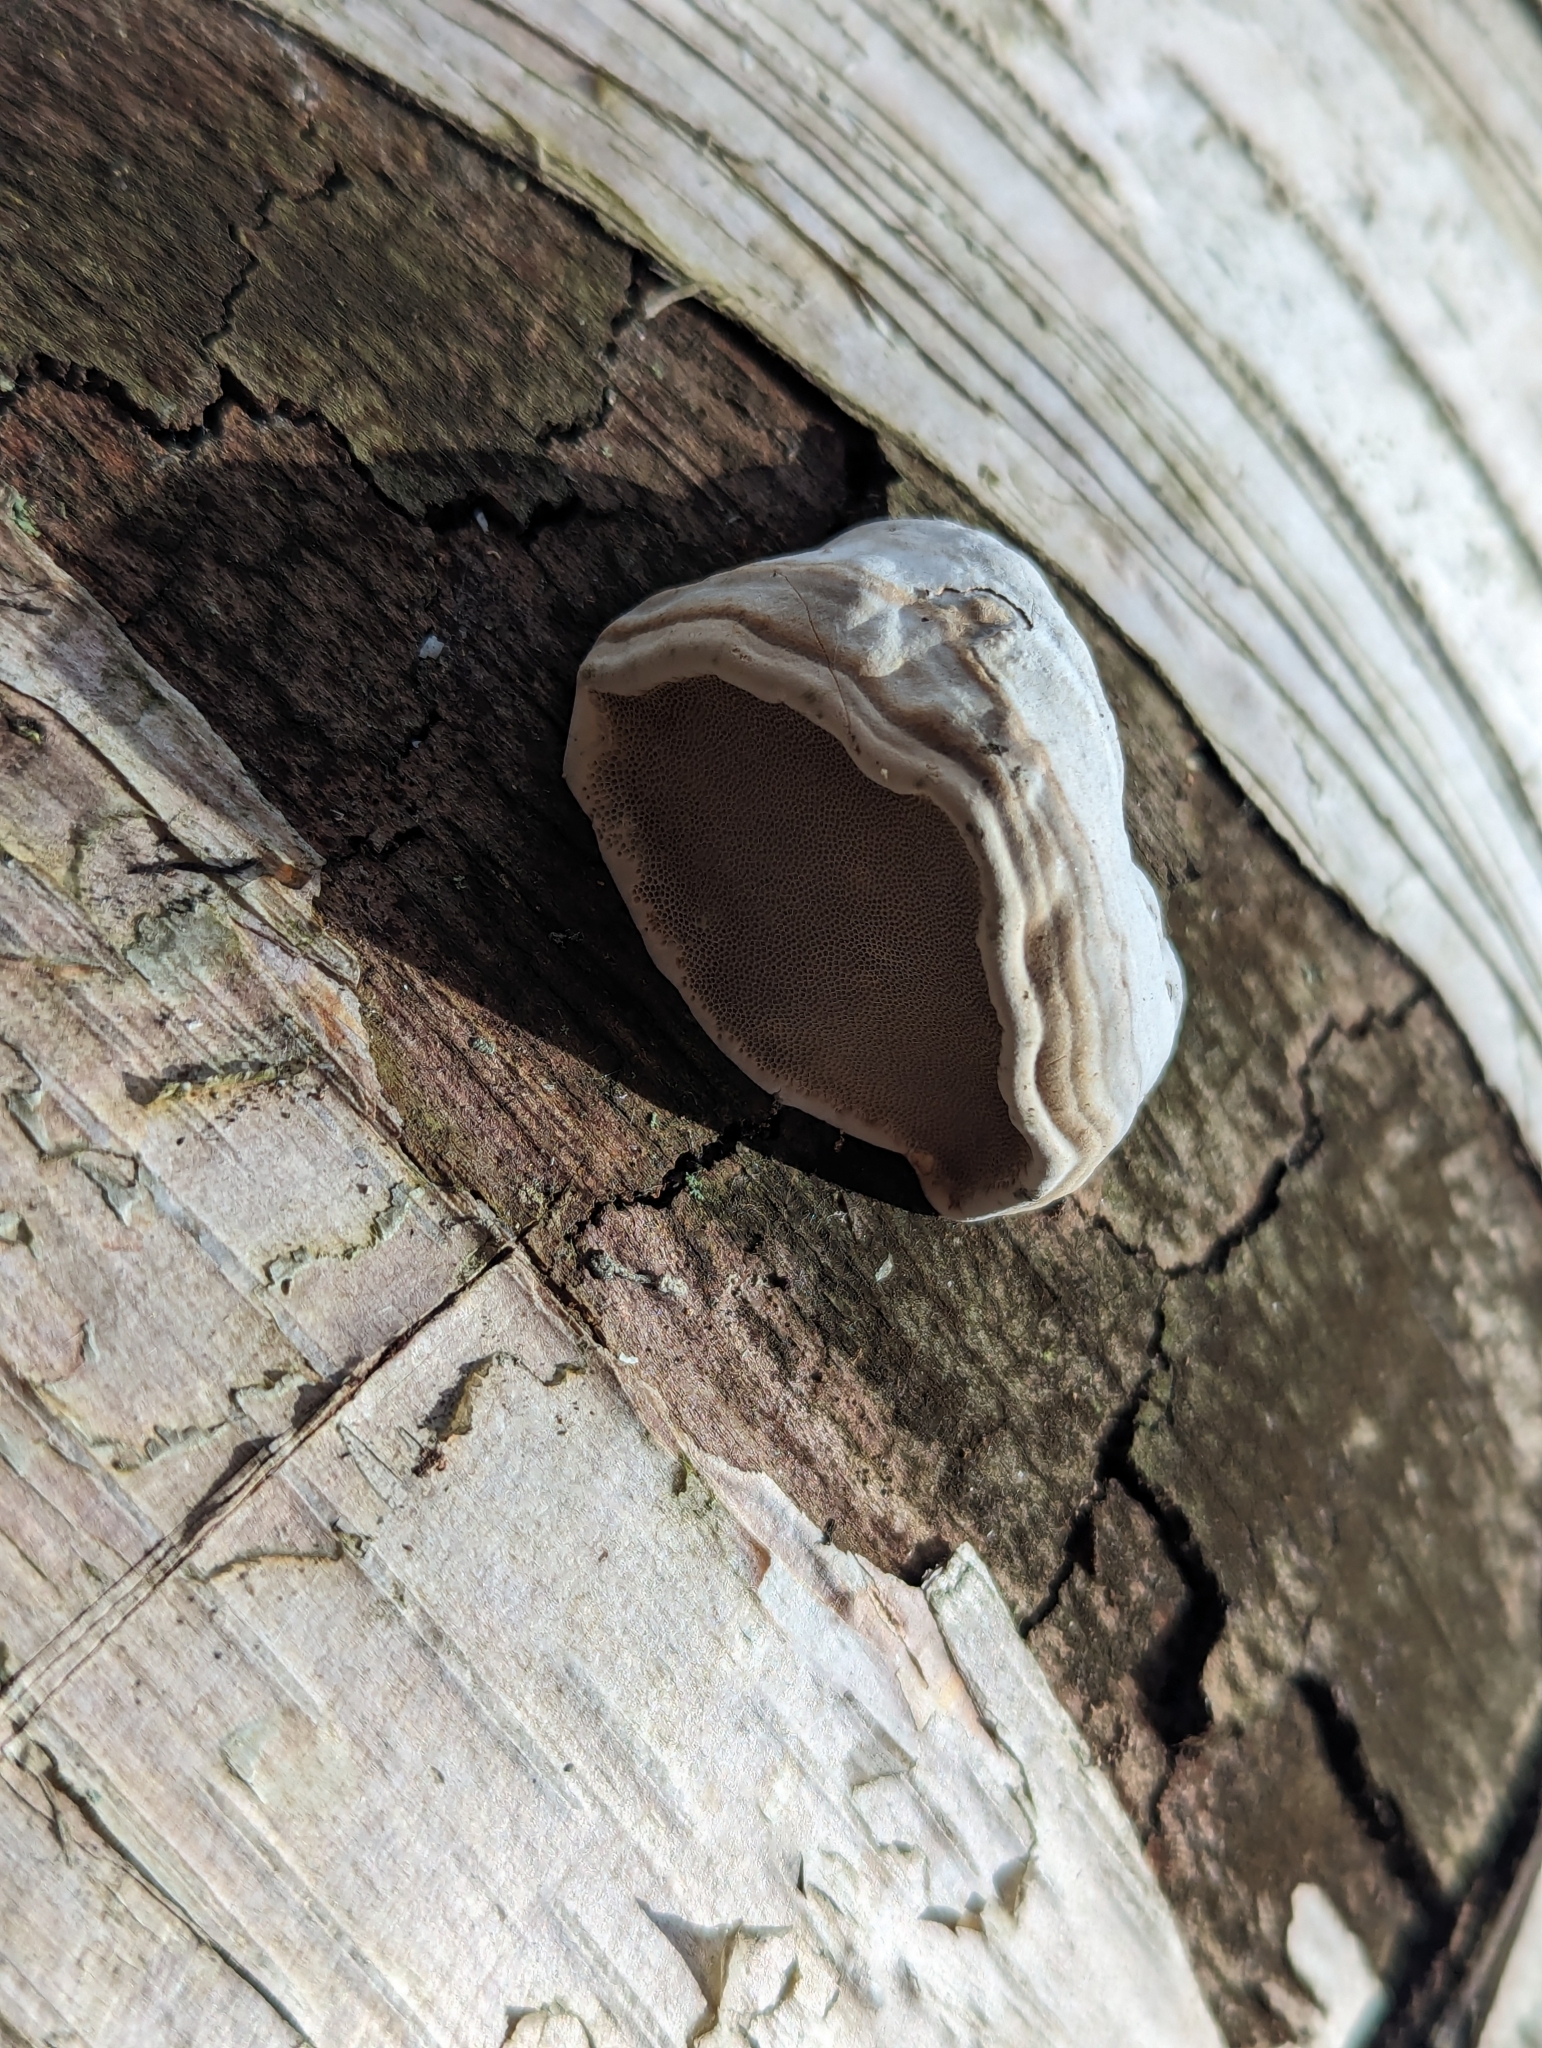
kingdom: Fungi
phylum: Basidiomycota
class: Agaricomycetes
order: Polyporales
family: Polyporaceae
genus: Fomes
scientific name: Fomes fomentarius
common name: Hoof fungus
